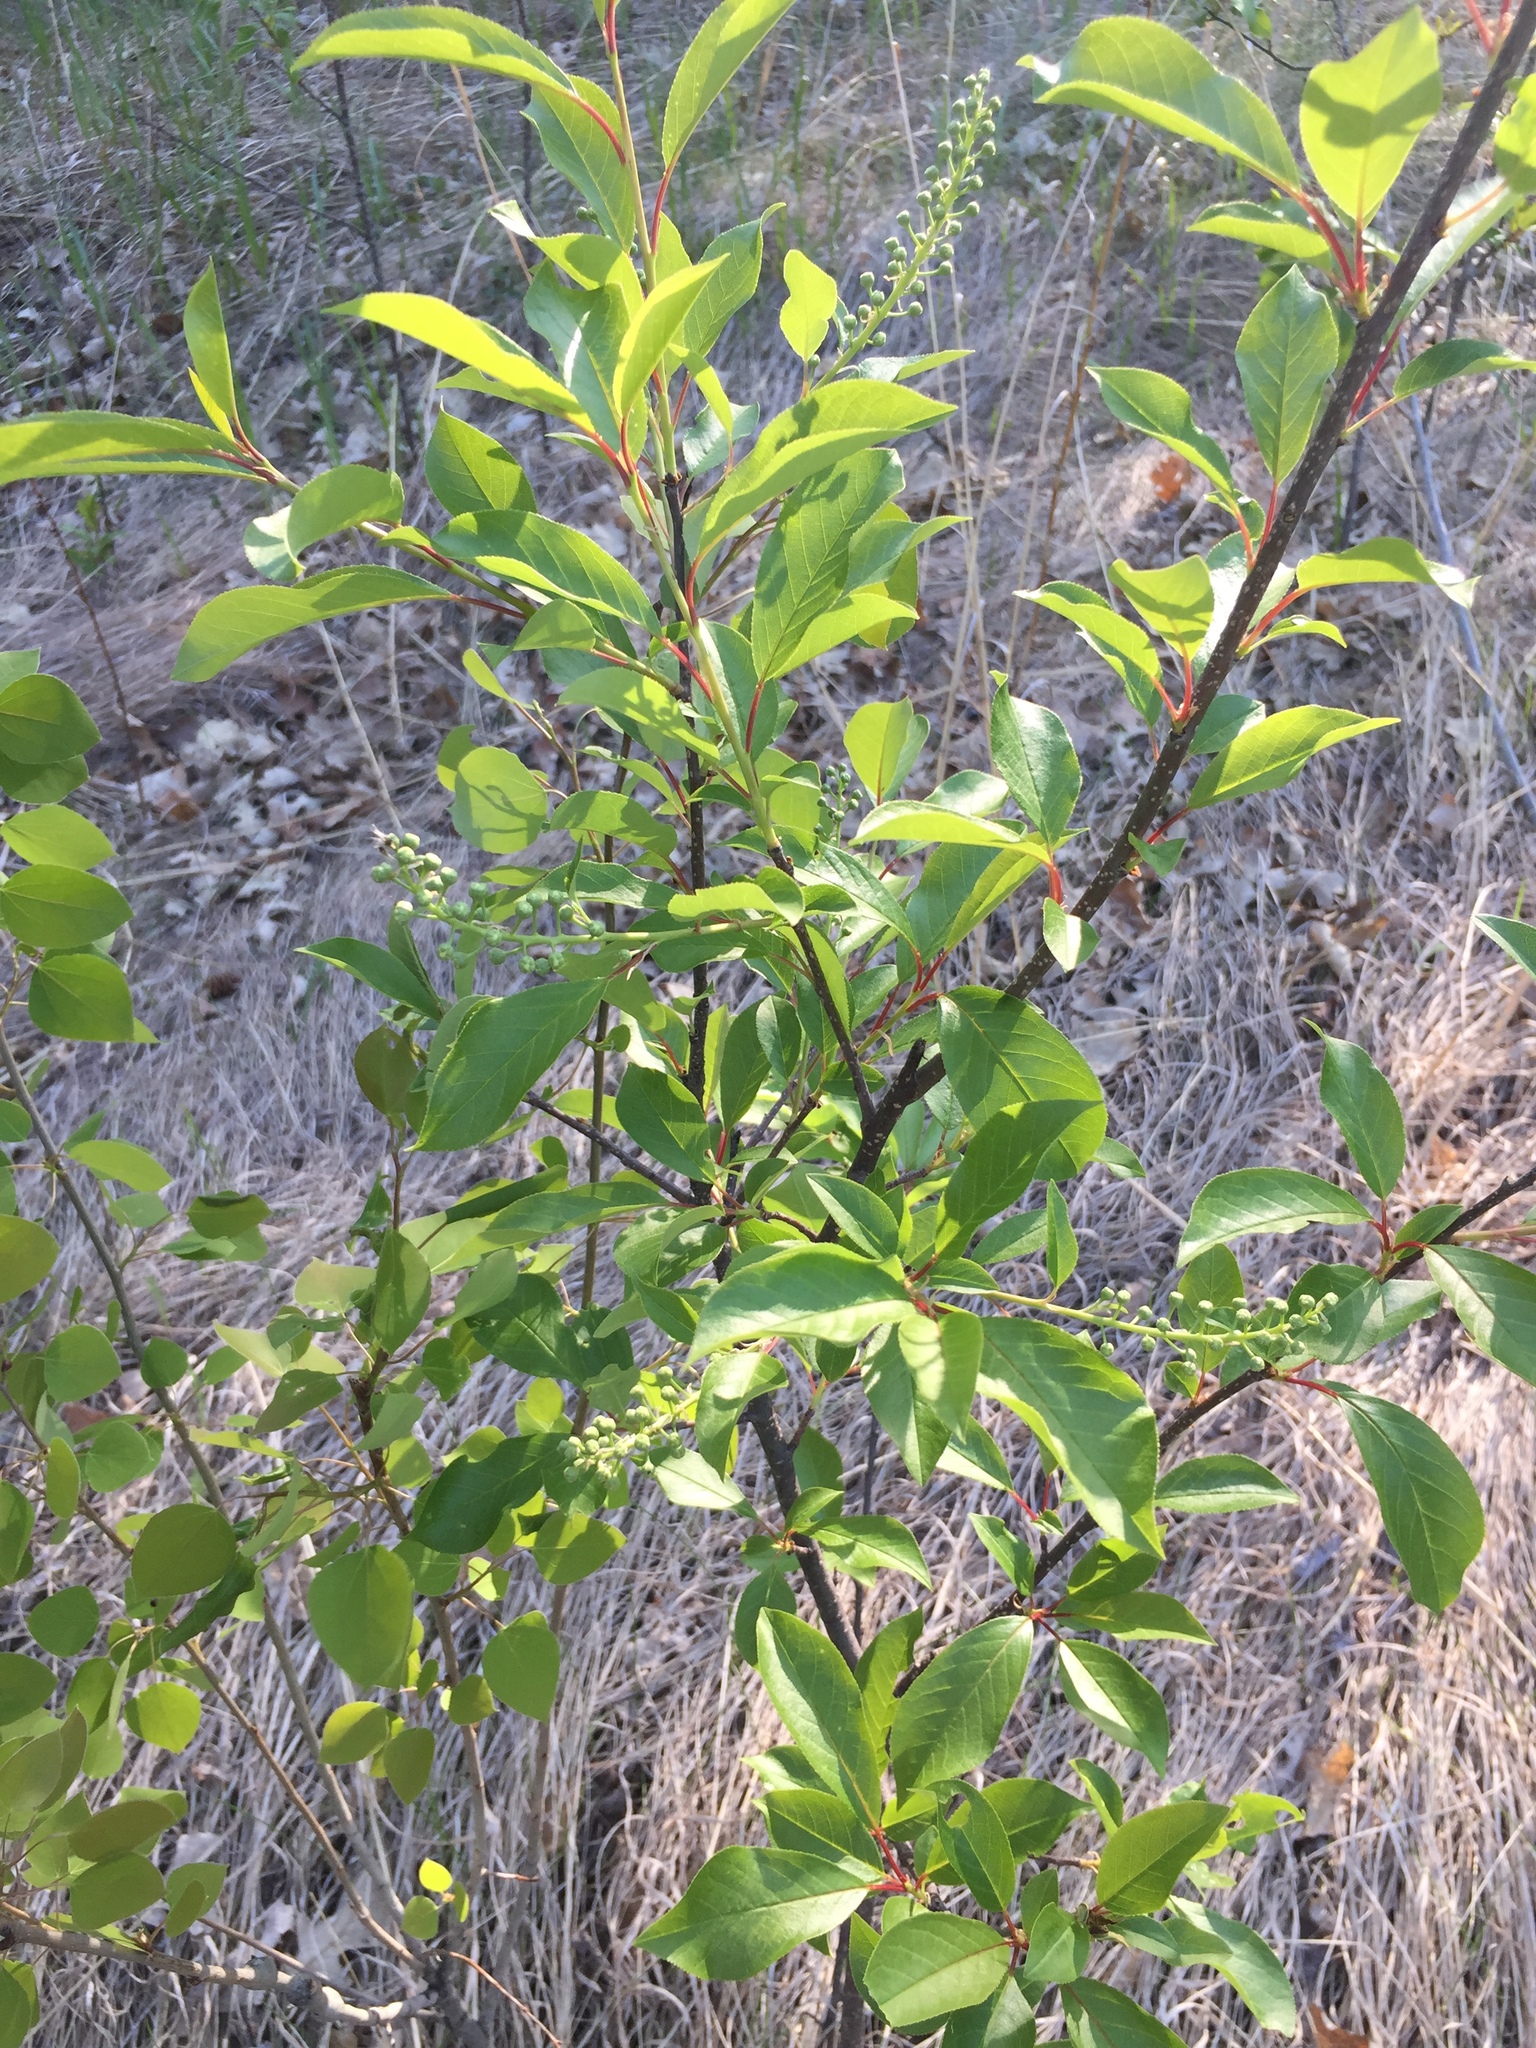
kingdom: Plantae
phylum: Tracheophyta
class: Magnoliopsida
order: Rosales
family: Rosaceae
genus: Prunus
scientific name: Prunus virginiana
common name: Chokecherry
